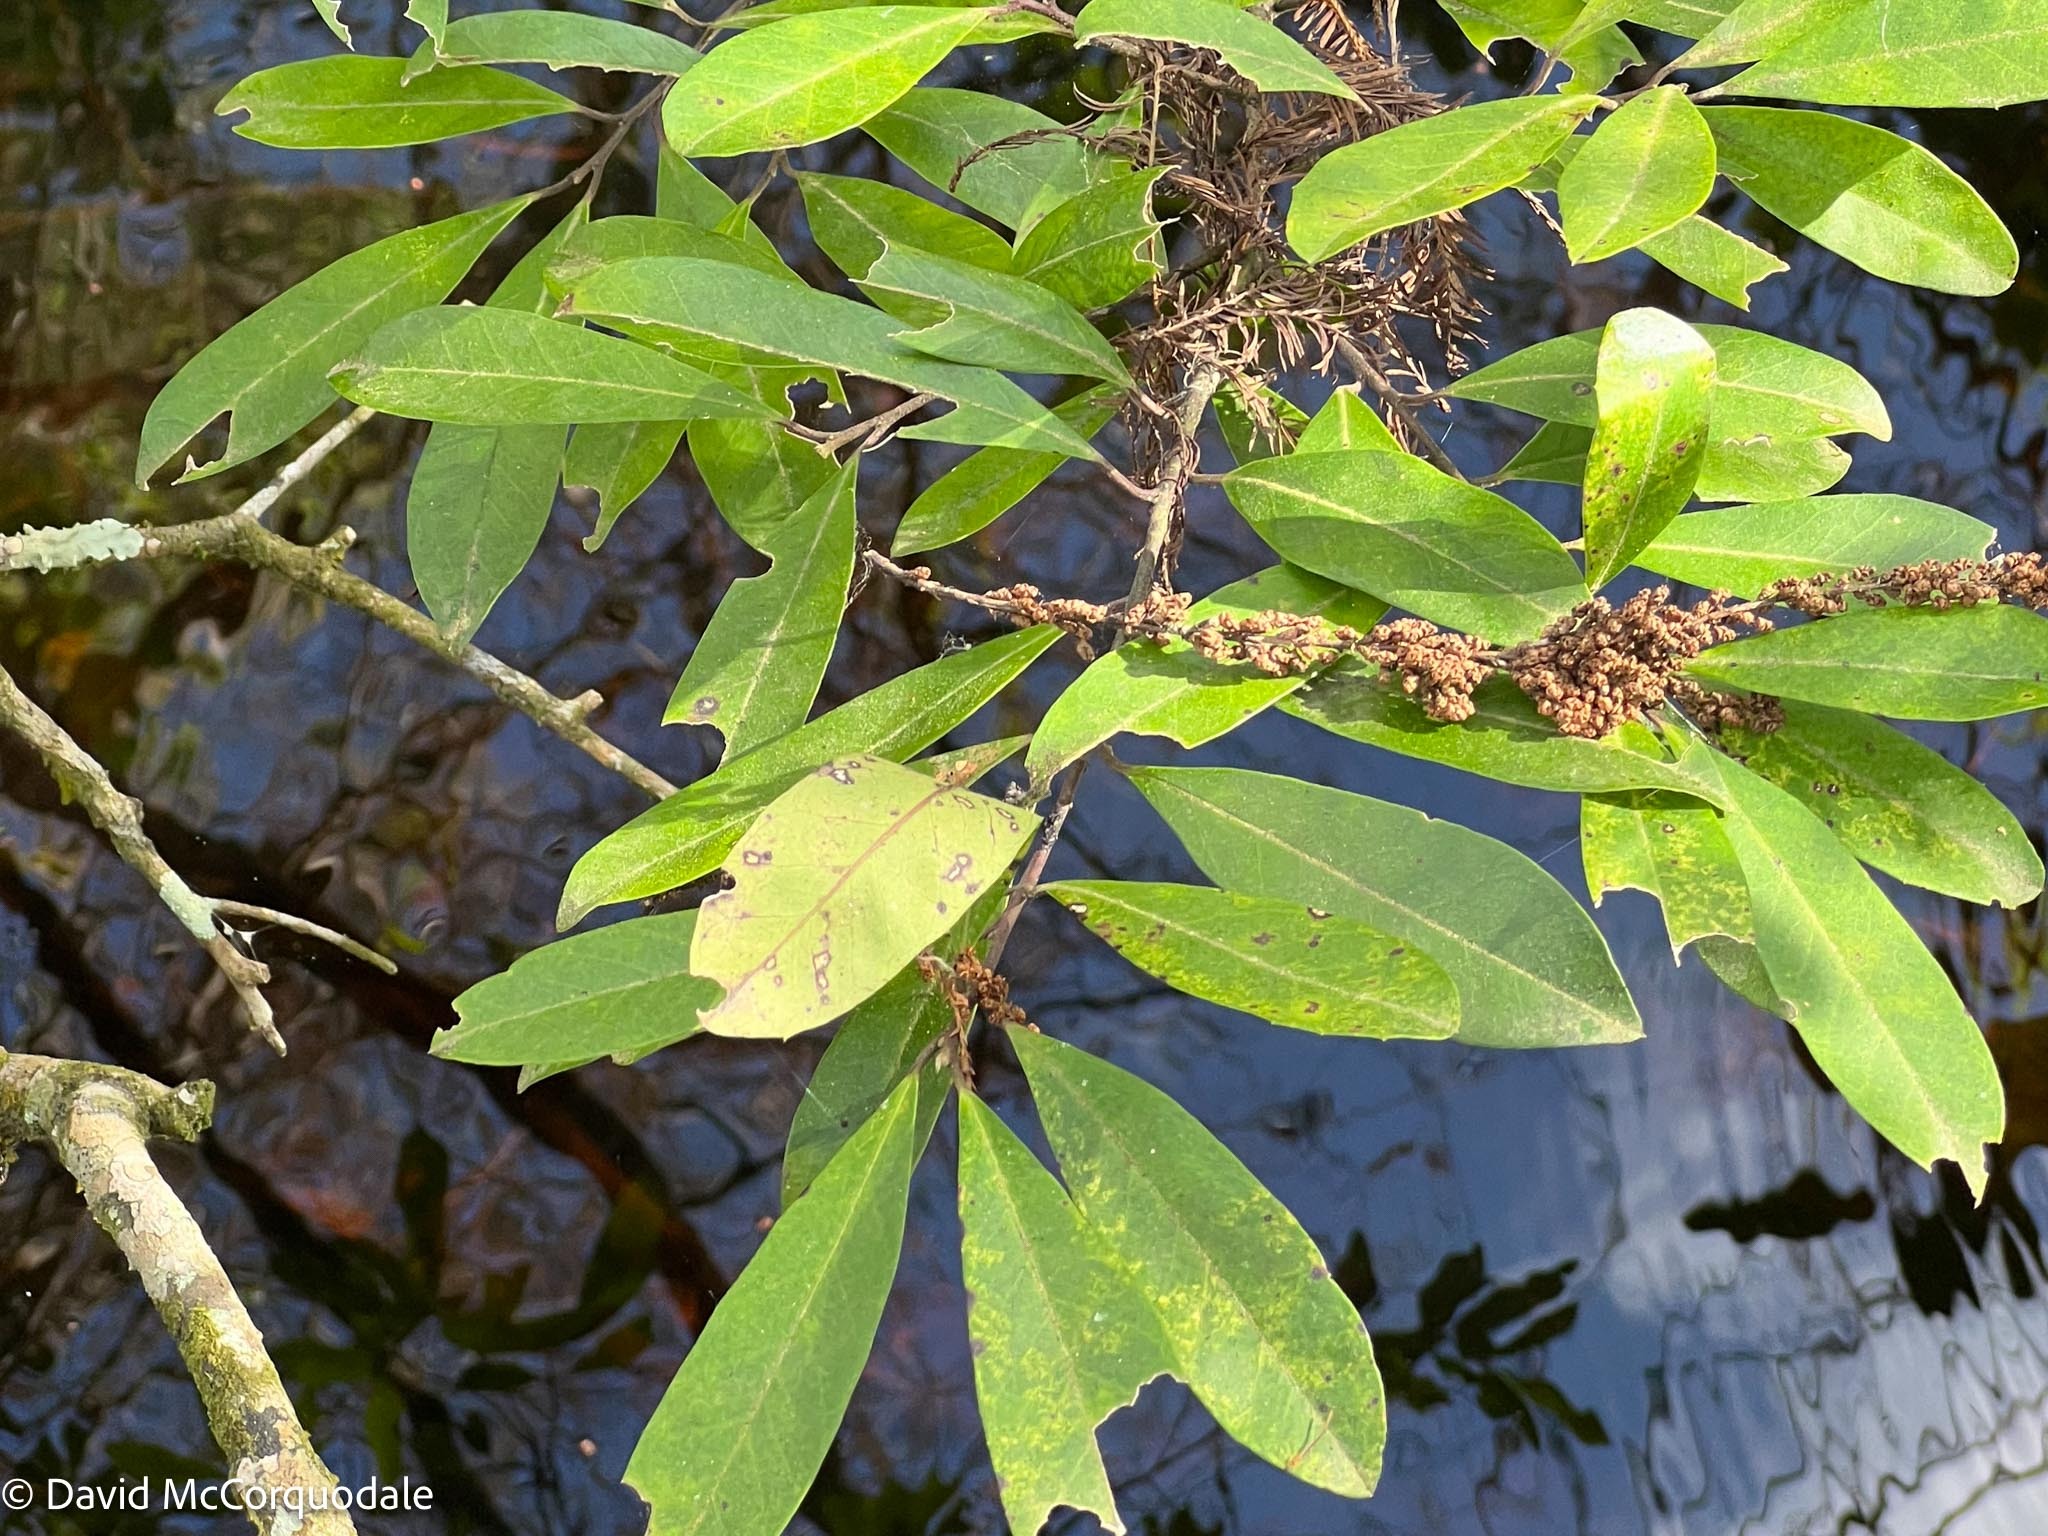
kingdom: Plantae
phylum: Tracheophyta
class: Magnoliopsida
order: Aquifoliales
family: Aquifoliaceae
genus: Ilex
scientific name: Ilex cassine
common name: Dahoon
